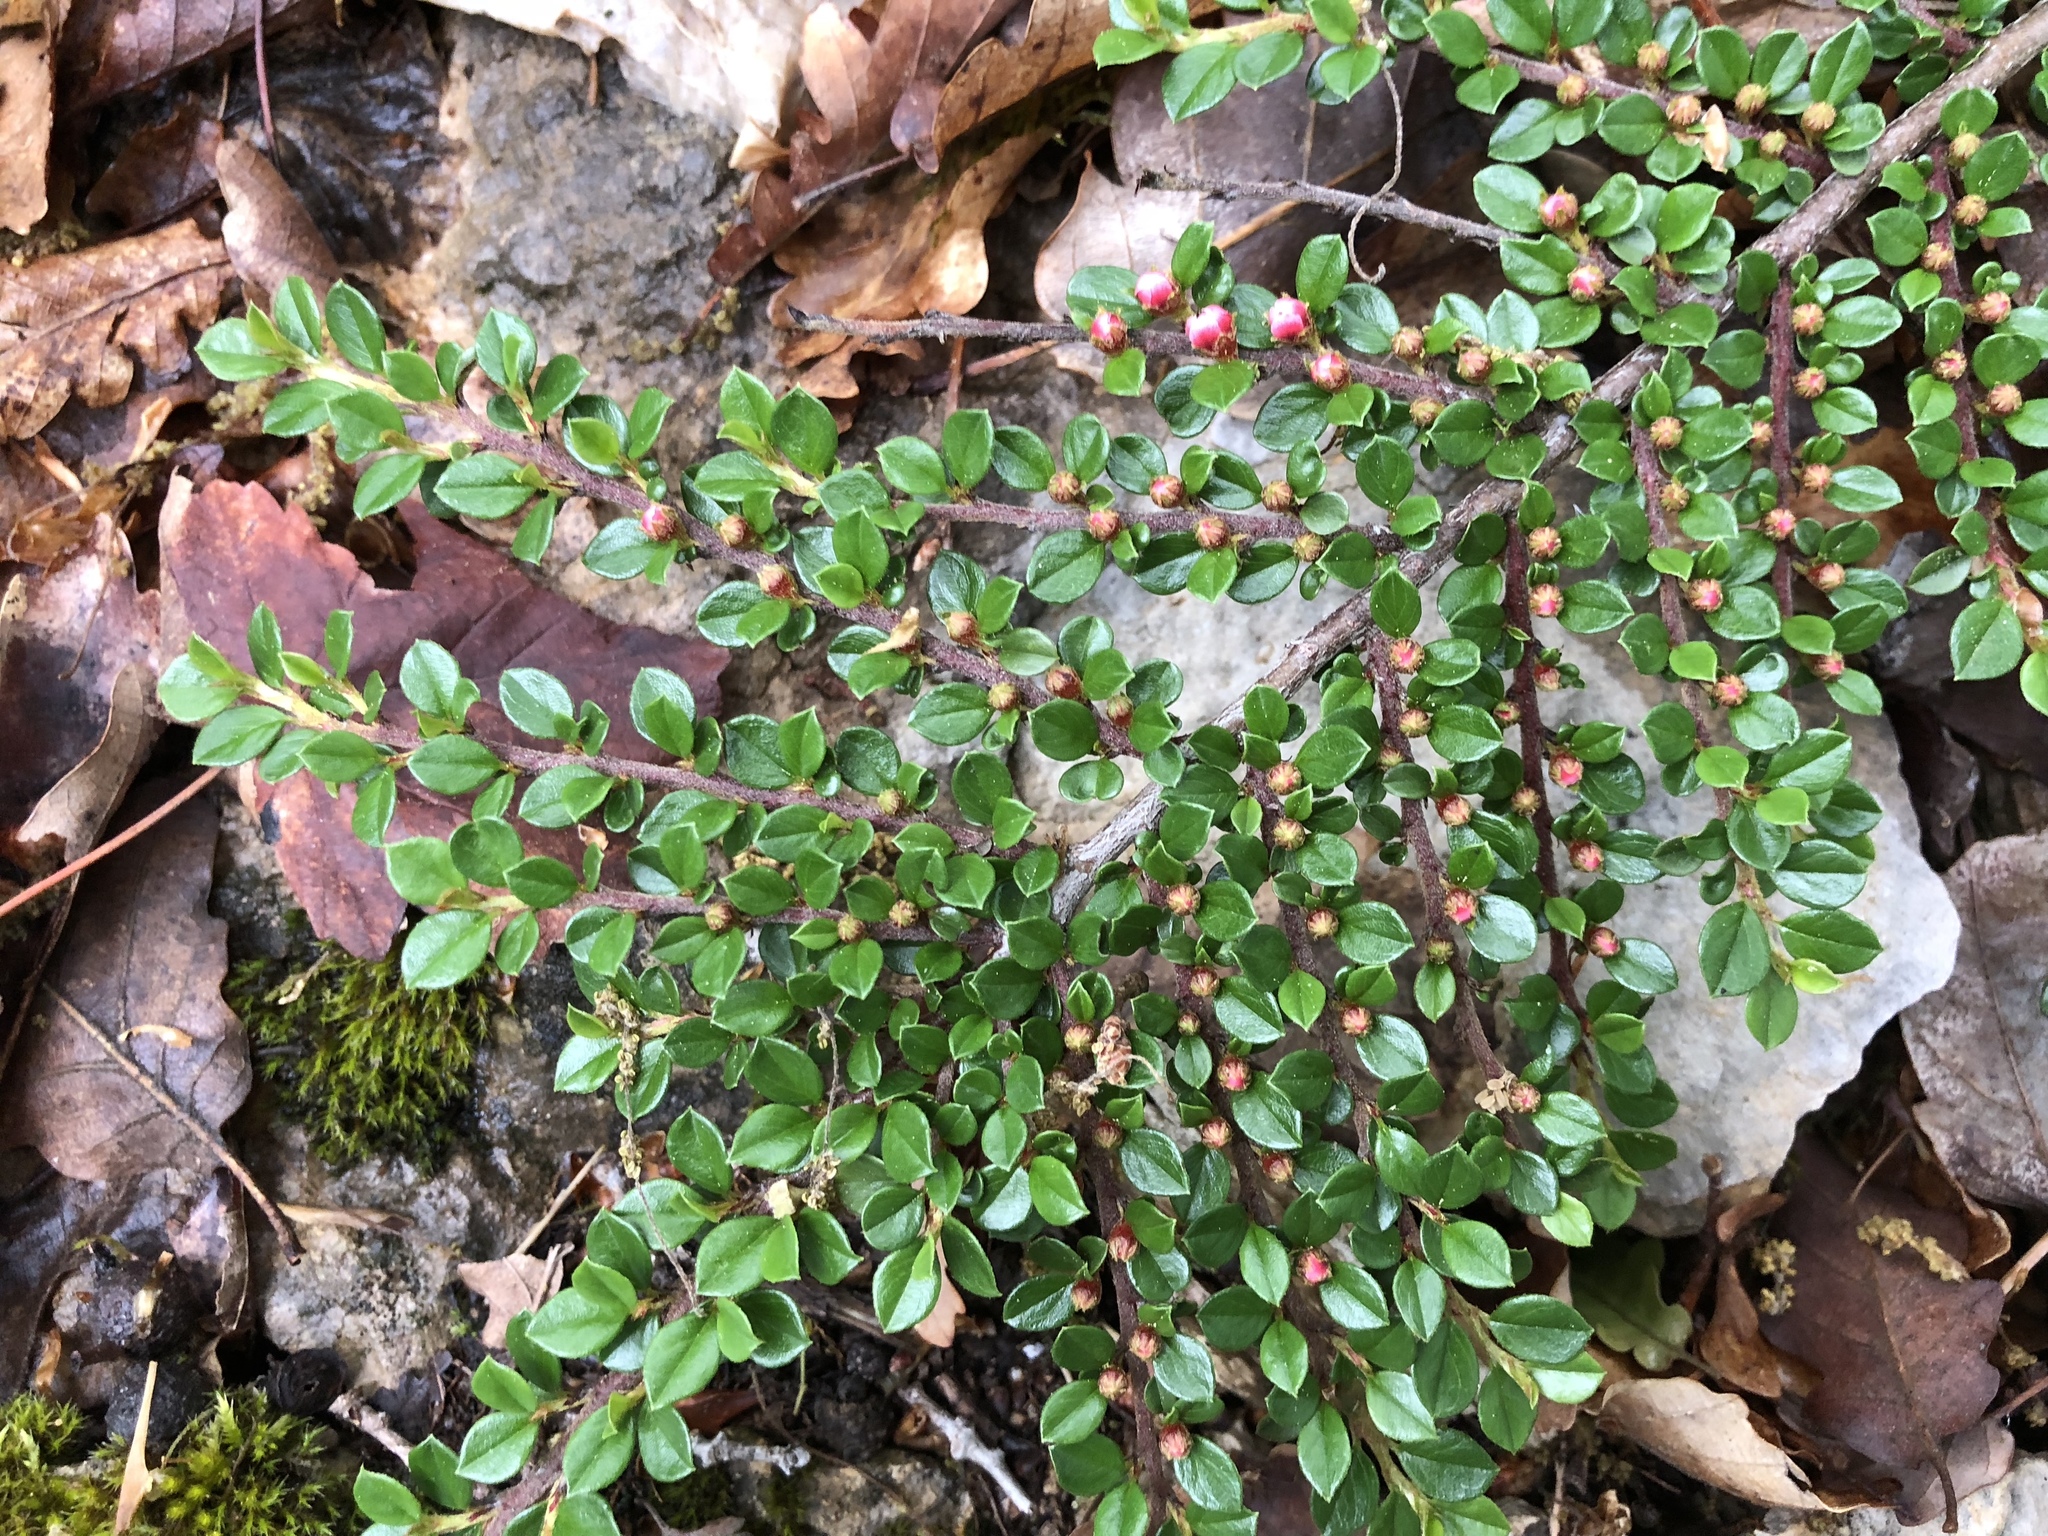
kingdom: Plantae
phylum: Tracheophyta
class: Magnoliopsida
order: Rosales
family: Rosaceae
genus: Cotoneaster
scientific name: Cotoneaster horizontalis
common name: Wall cotoneaster
